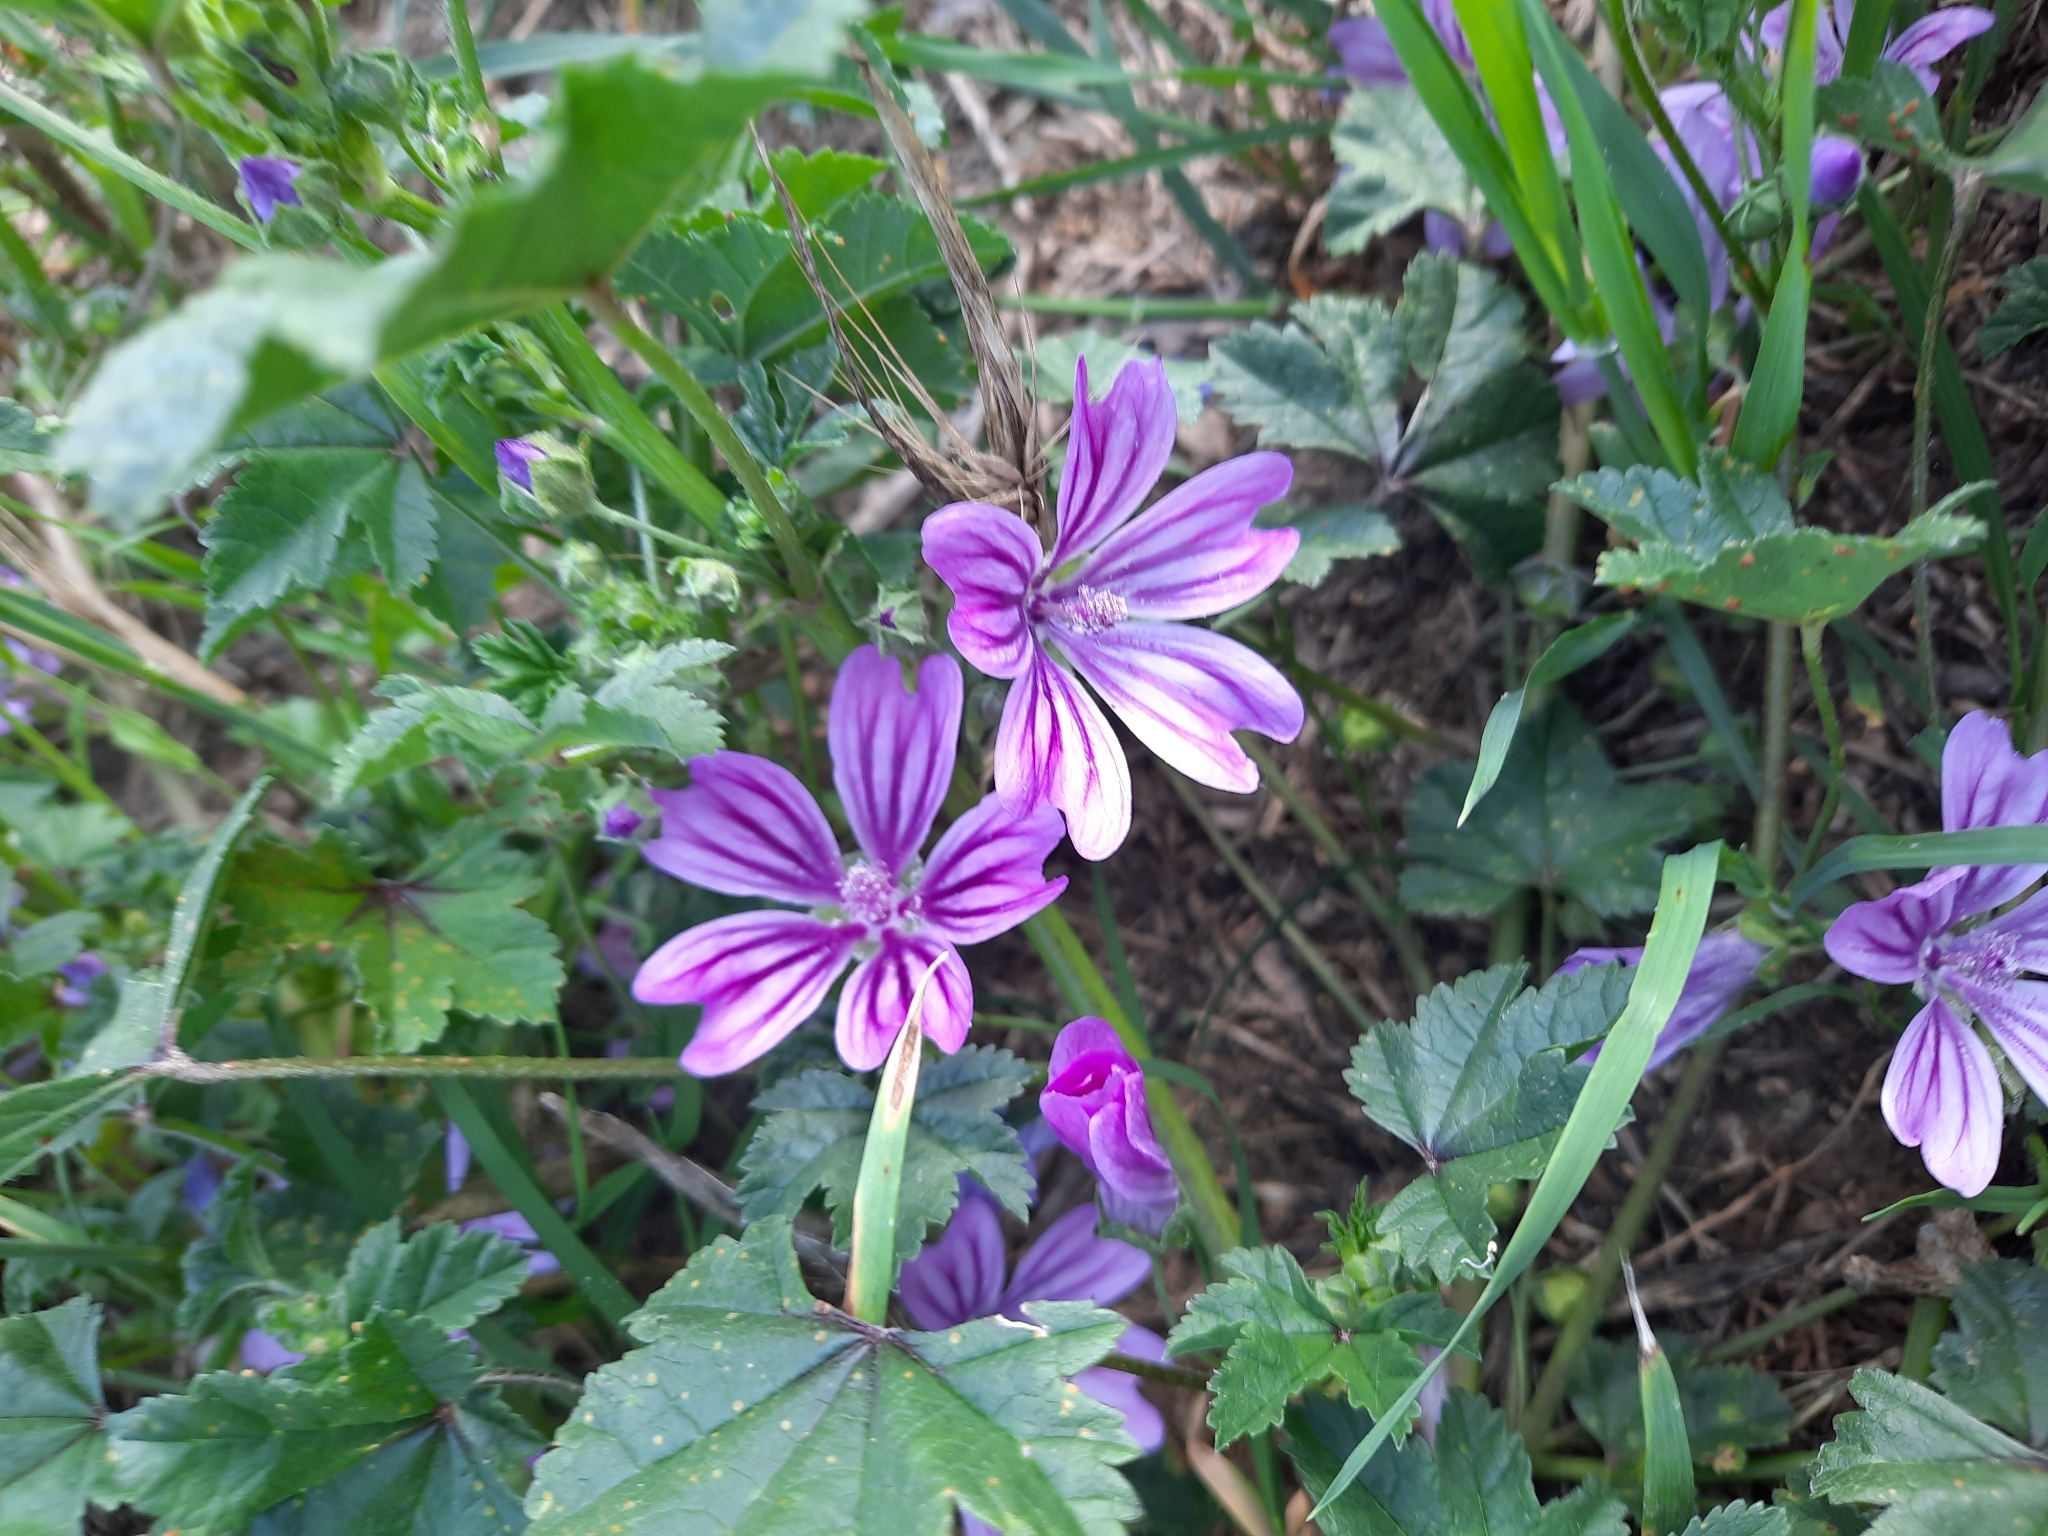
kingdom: Plantae
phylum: Tracheophyta
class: Magnoliopsida
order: Malvales
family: Malvaceae
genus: Malva
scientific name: Malva sylvestris
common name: Common mallow
